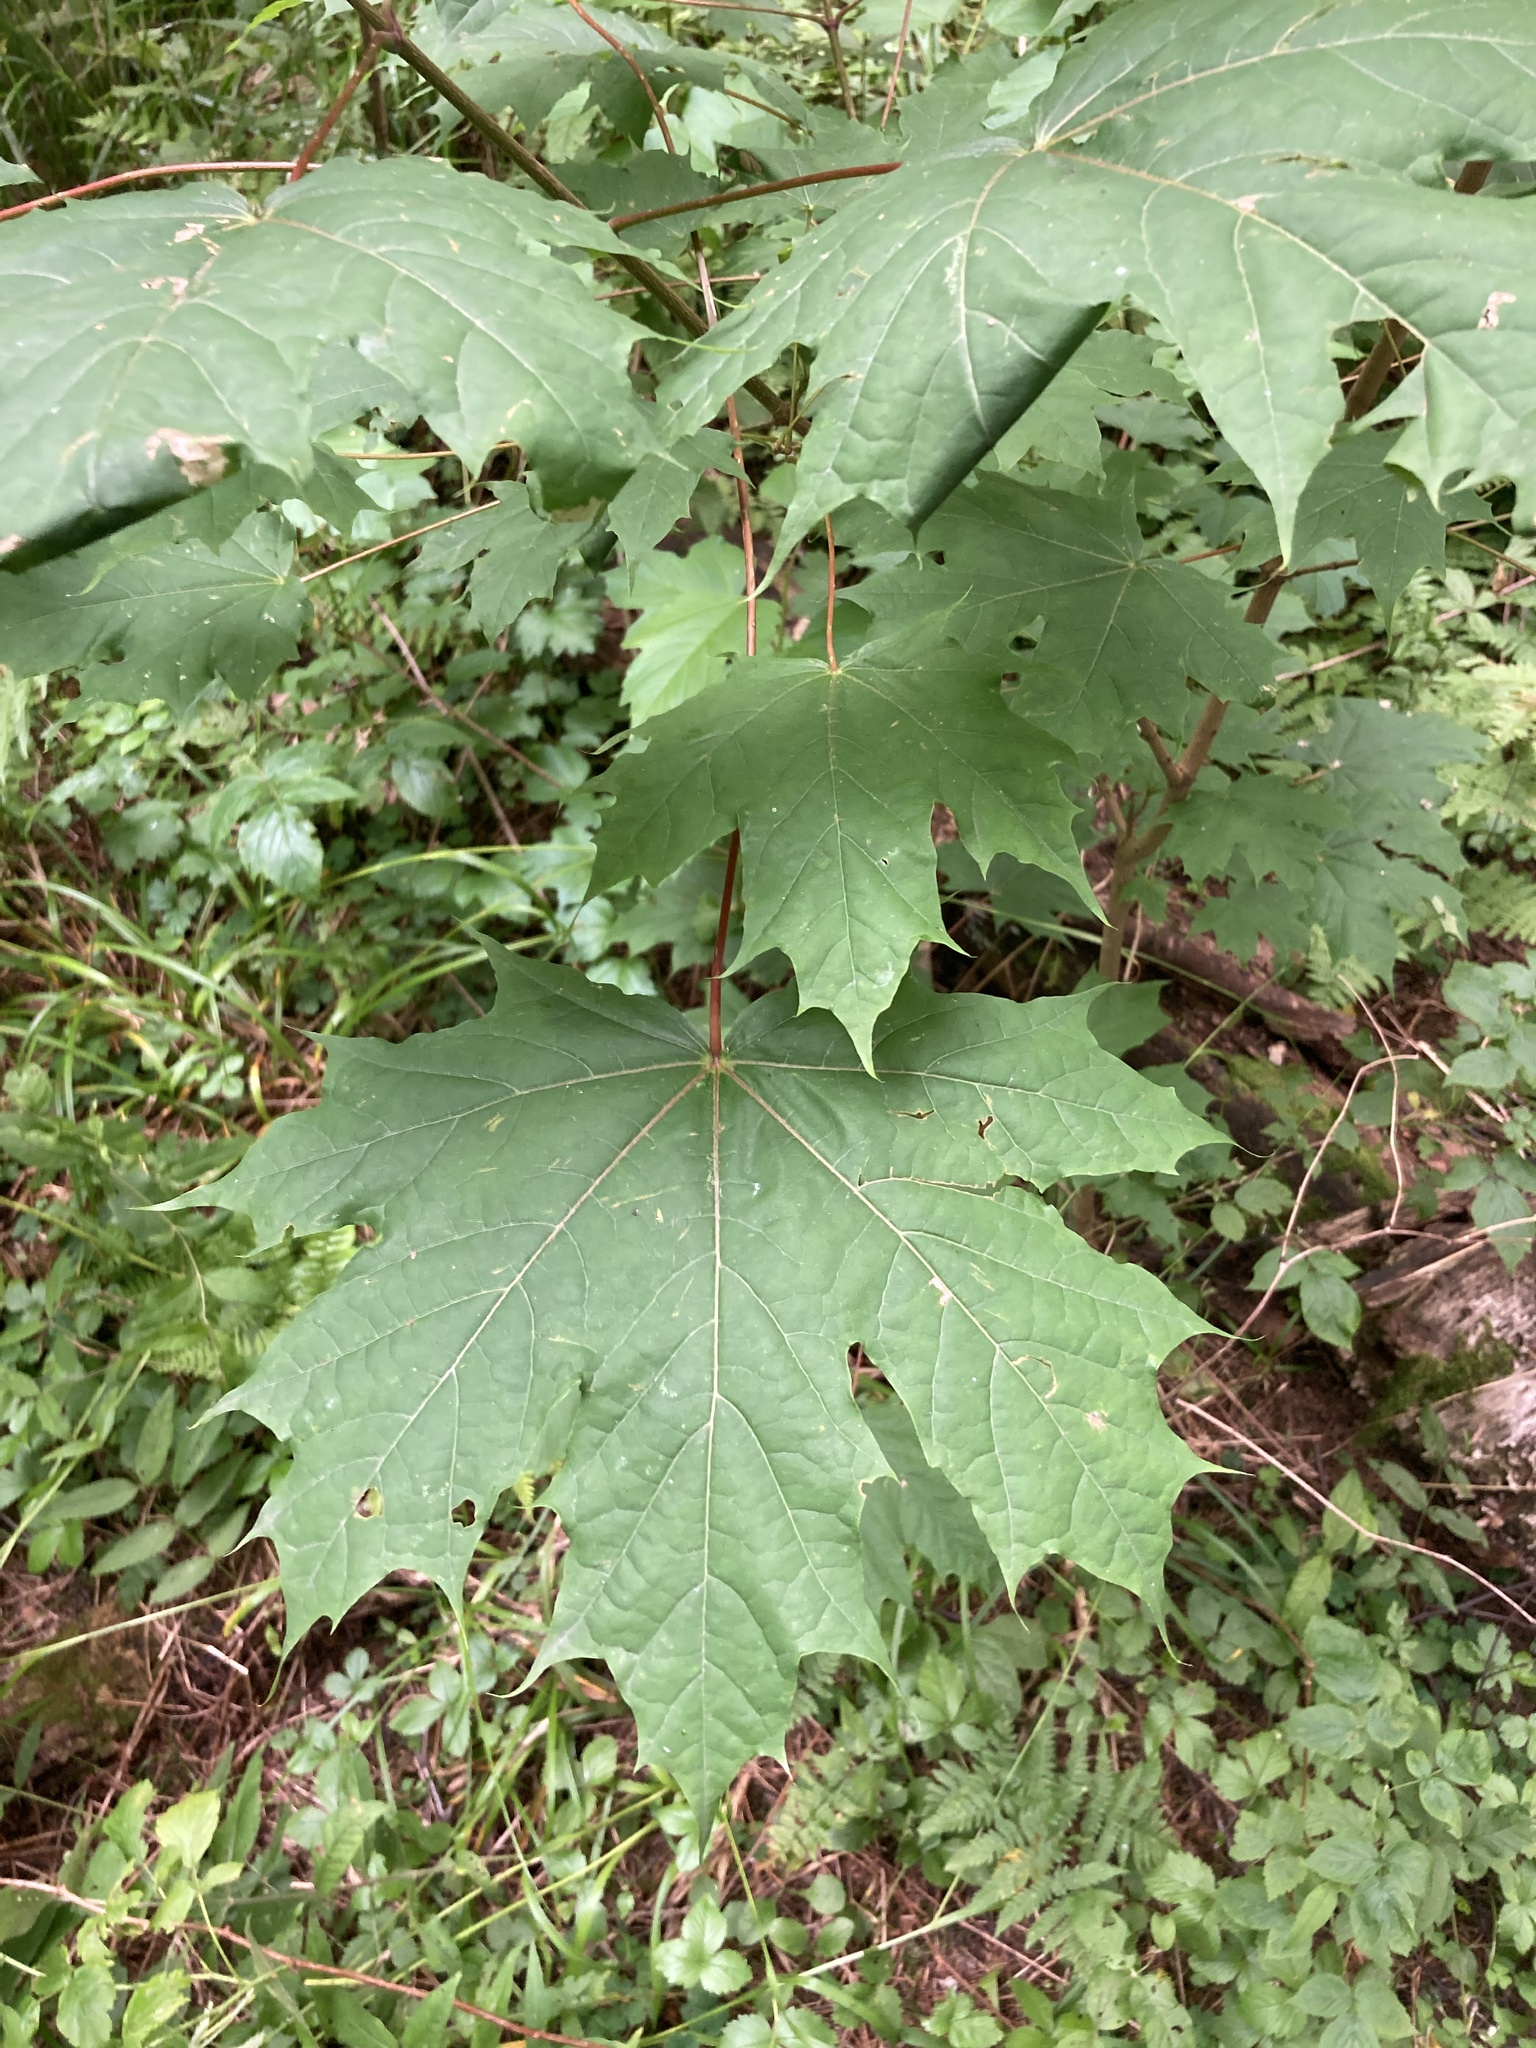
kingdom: Plantae
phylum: Tracheophyta
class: Magnoliopsida
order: Sapindales
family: Sapindaceae
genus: Acer
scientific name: Acer platanoides
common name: Norway maple
